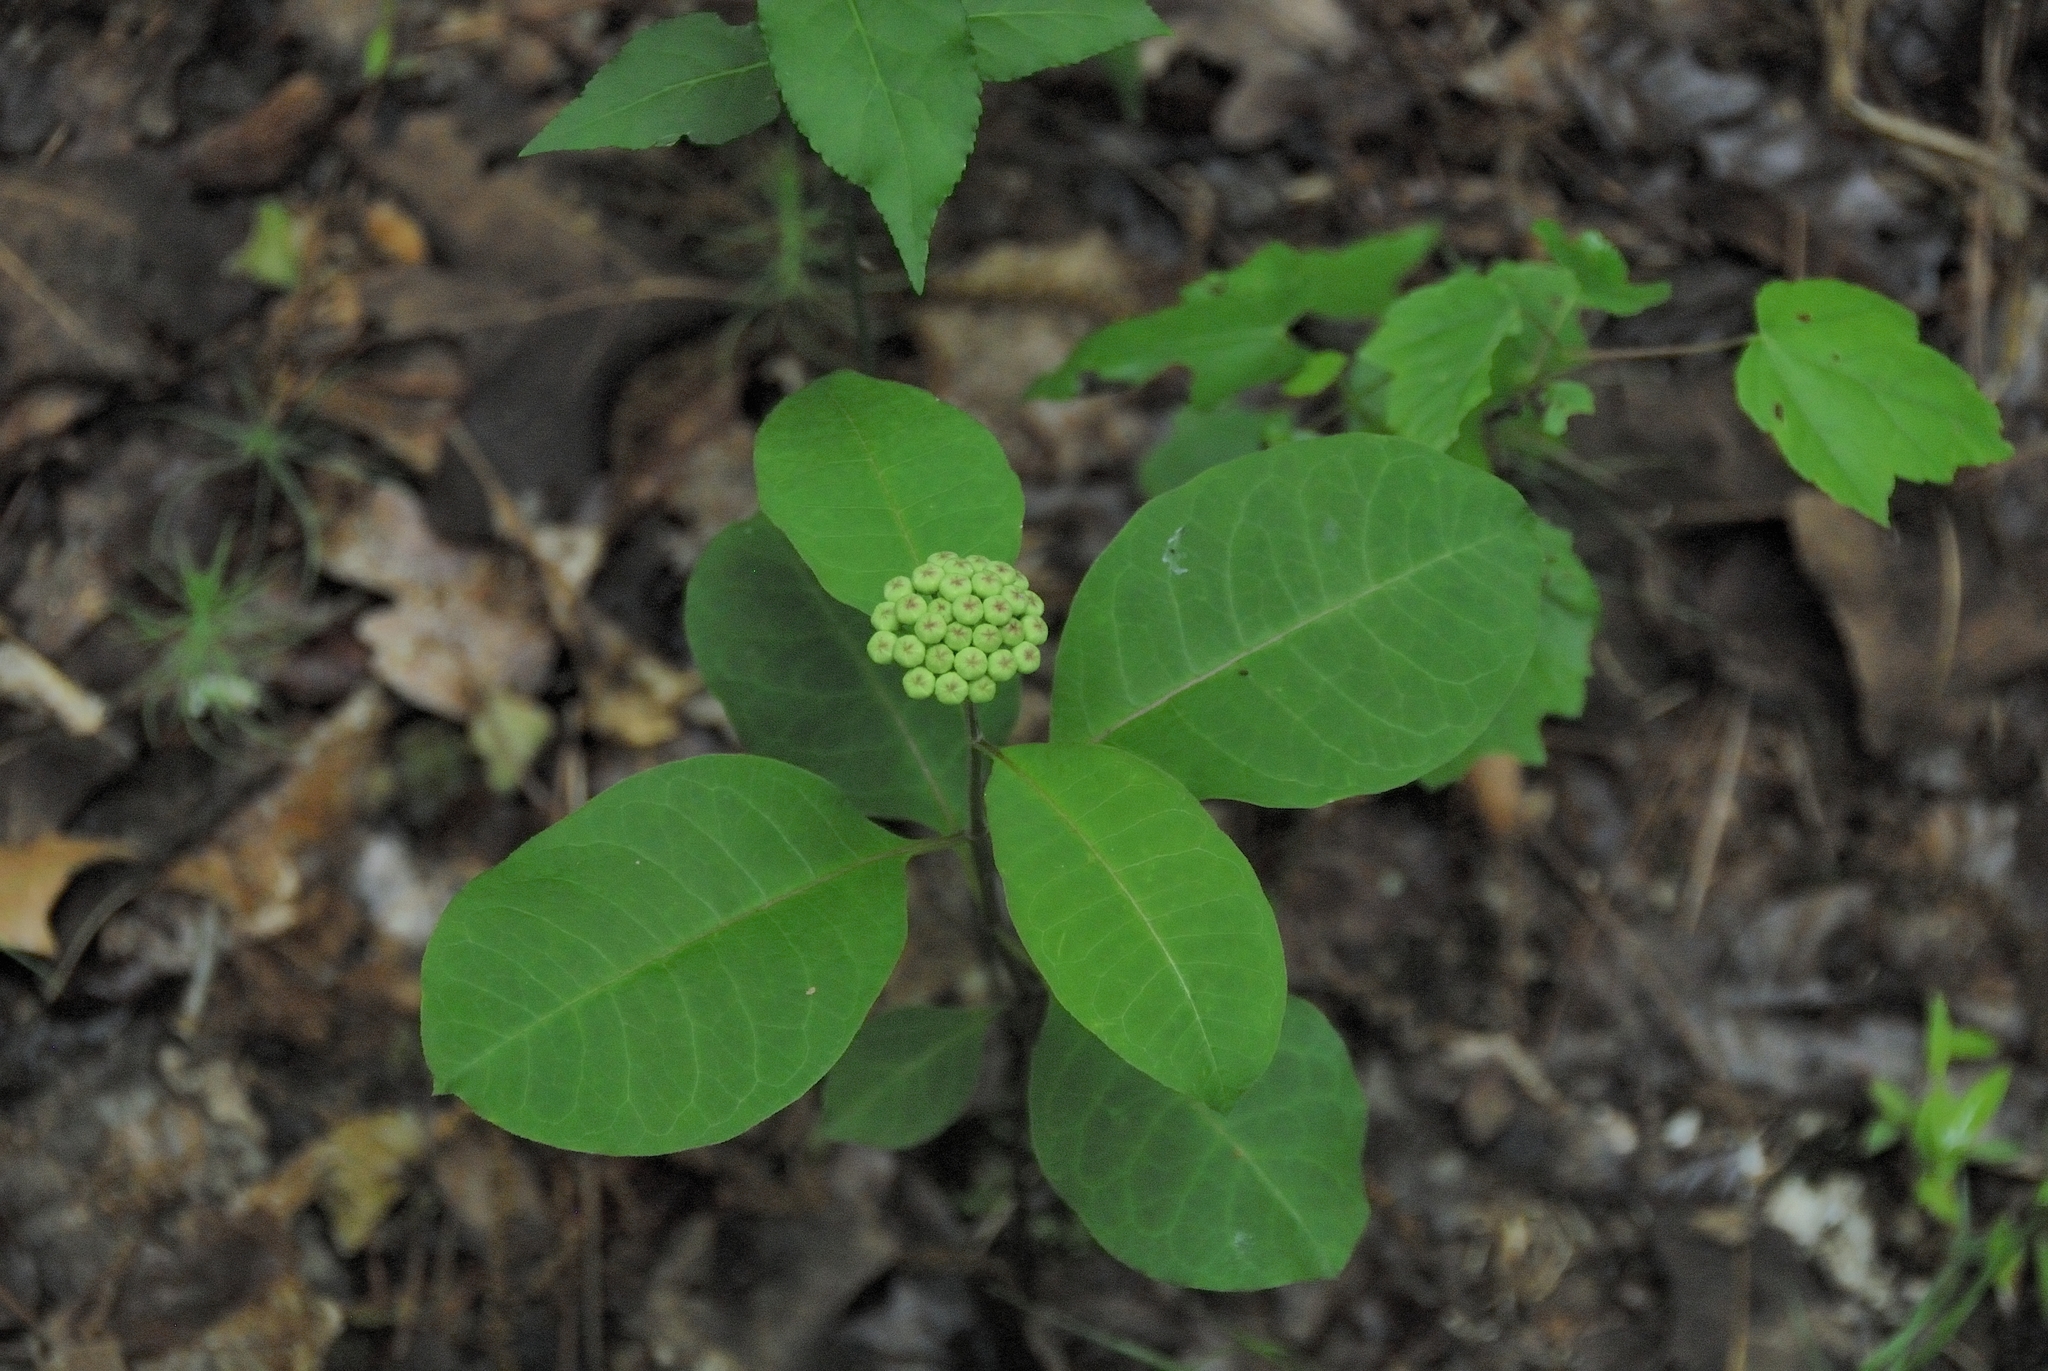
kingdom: Plantae
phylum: Tracheophyta
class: Magnoliopsida
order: Gentianales
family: Apocynaceae
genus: Asclepias
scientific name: Asclepias variegata
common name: Variegated milkweed
